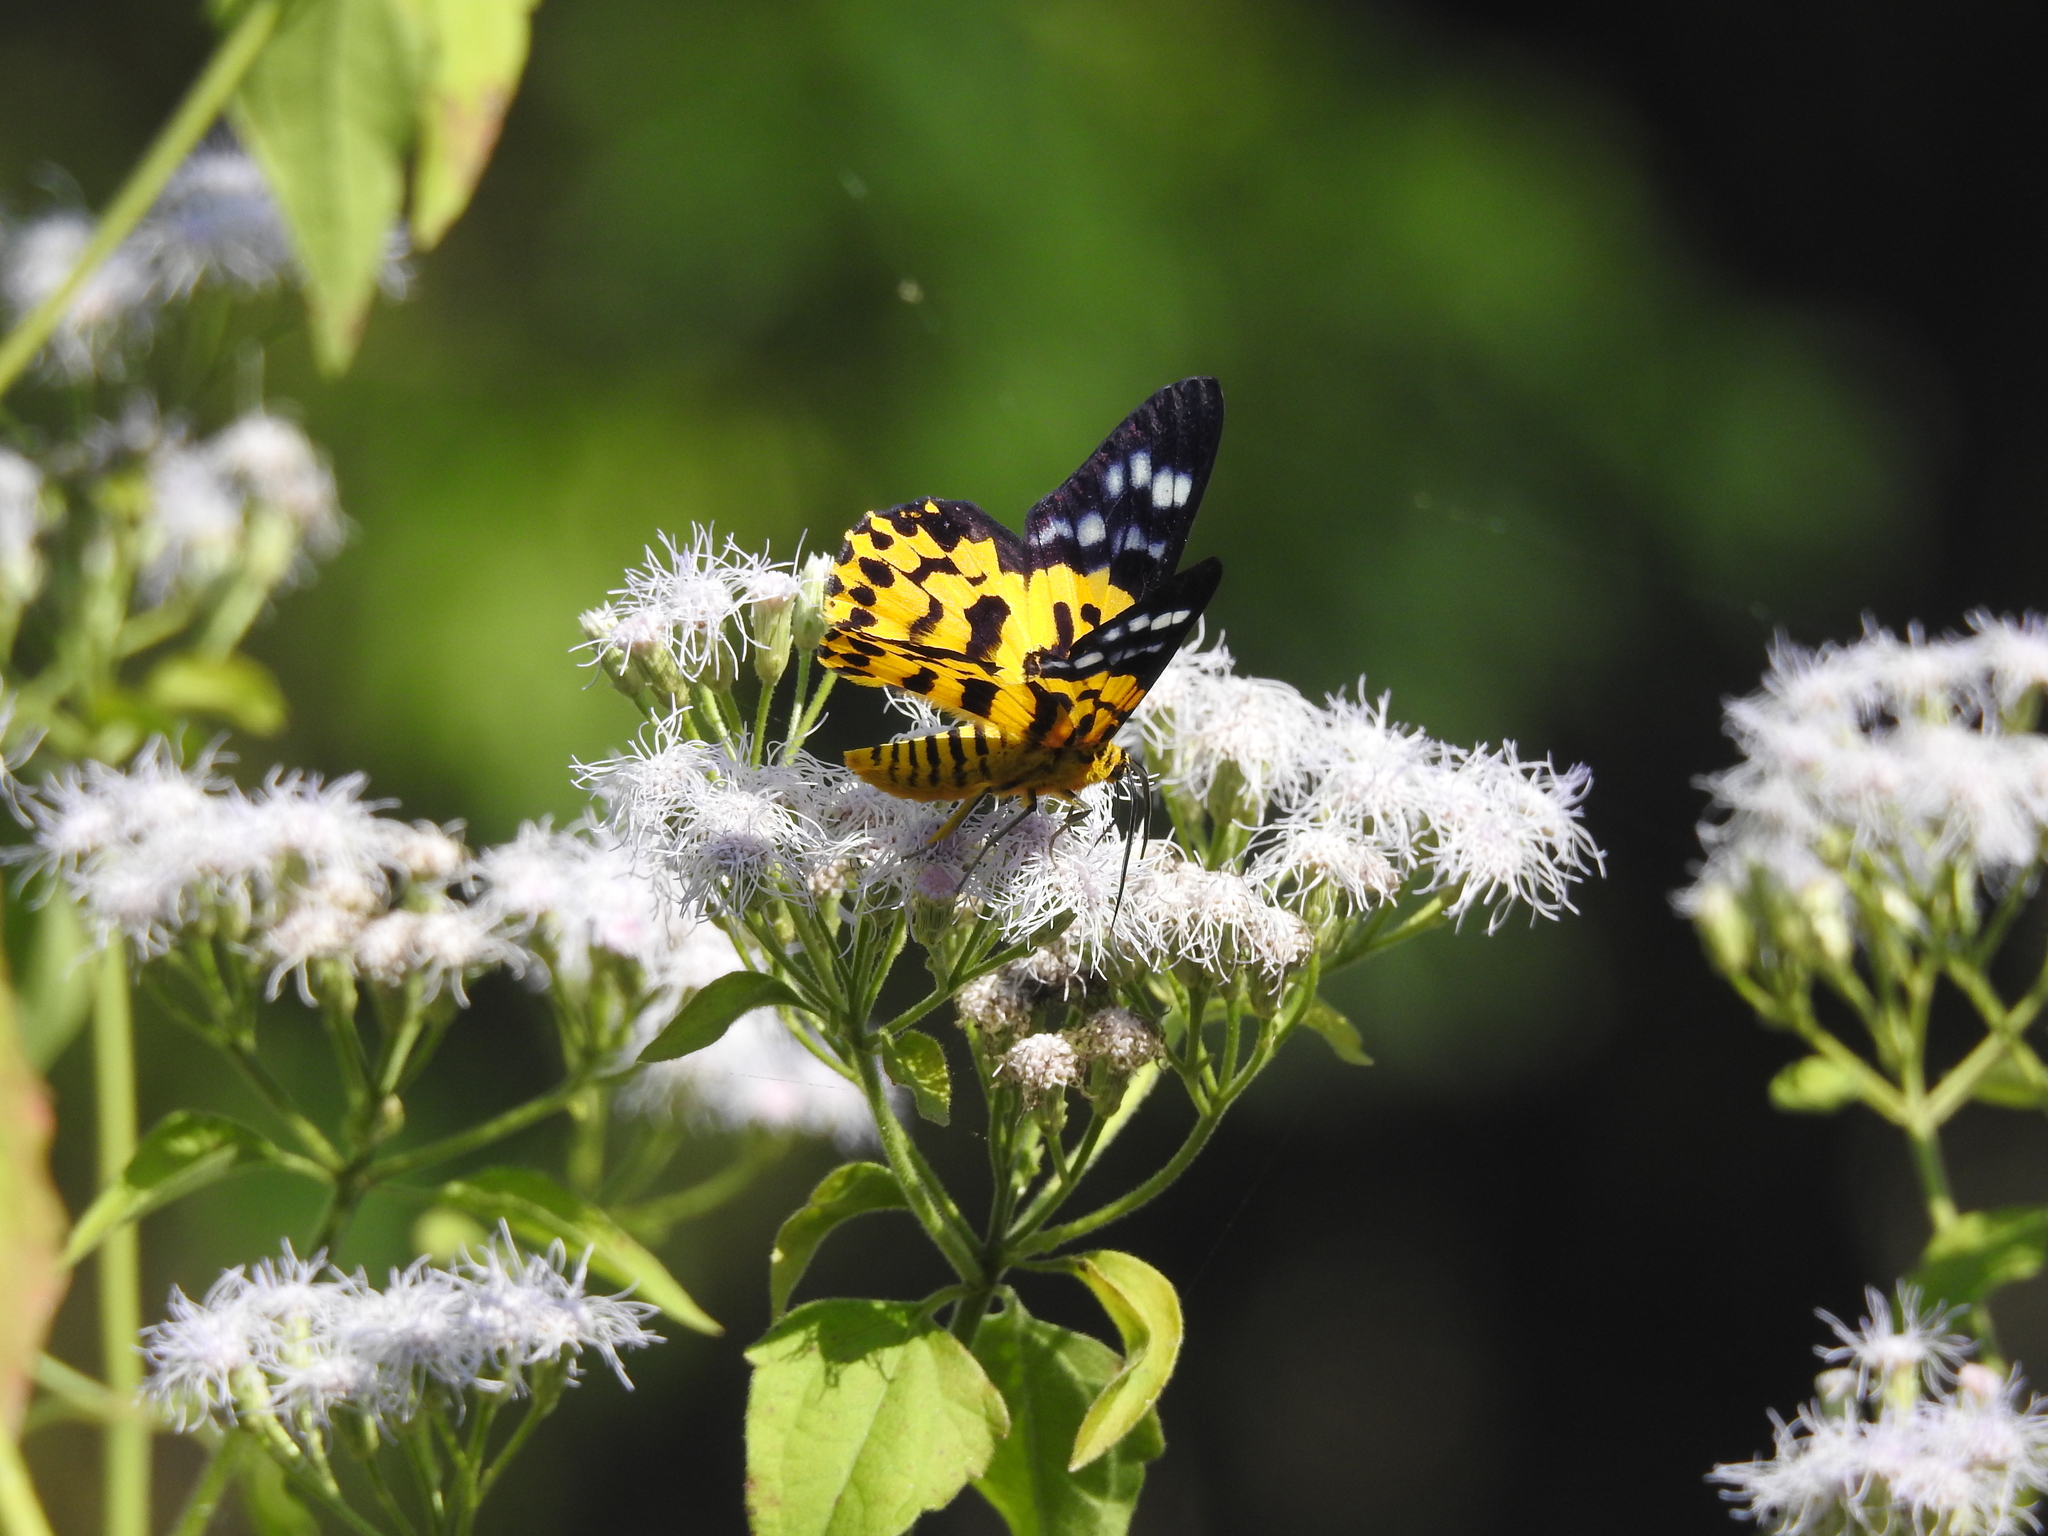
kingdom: Animalia
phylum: Arthropoda
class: Insecta
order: Lepidoptera
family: Geometridae
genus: Dysphania
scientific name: Dysphania militaris
